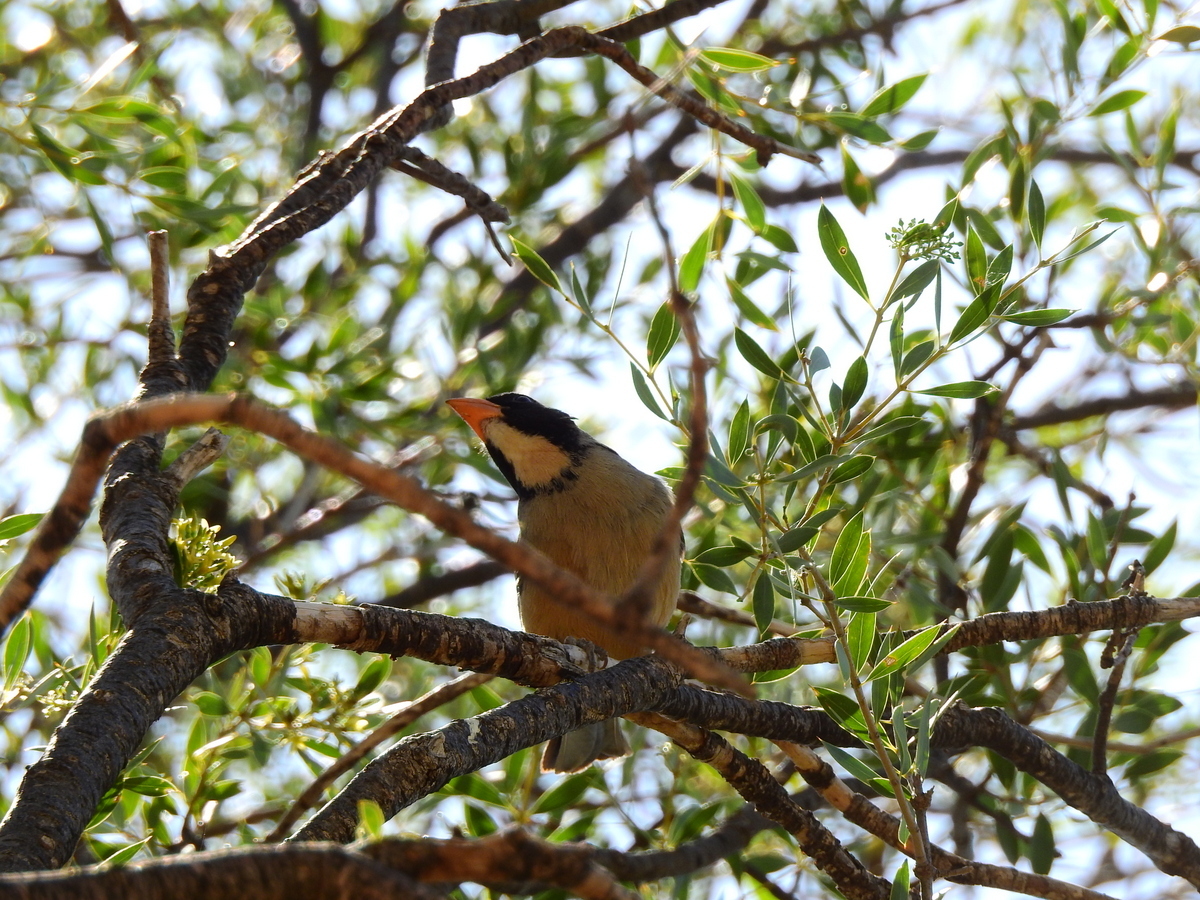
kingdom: Animalia
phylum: Chordata
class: Aves
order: Passeriformes
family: Thraupidae
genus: Saltator
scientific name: Saltator aurantiirostris
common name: Golden-billed saltator
